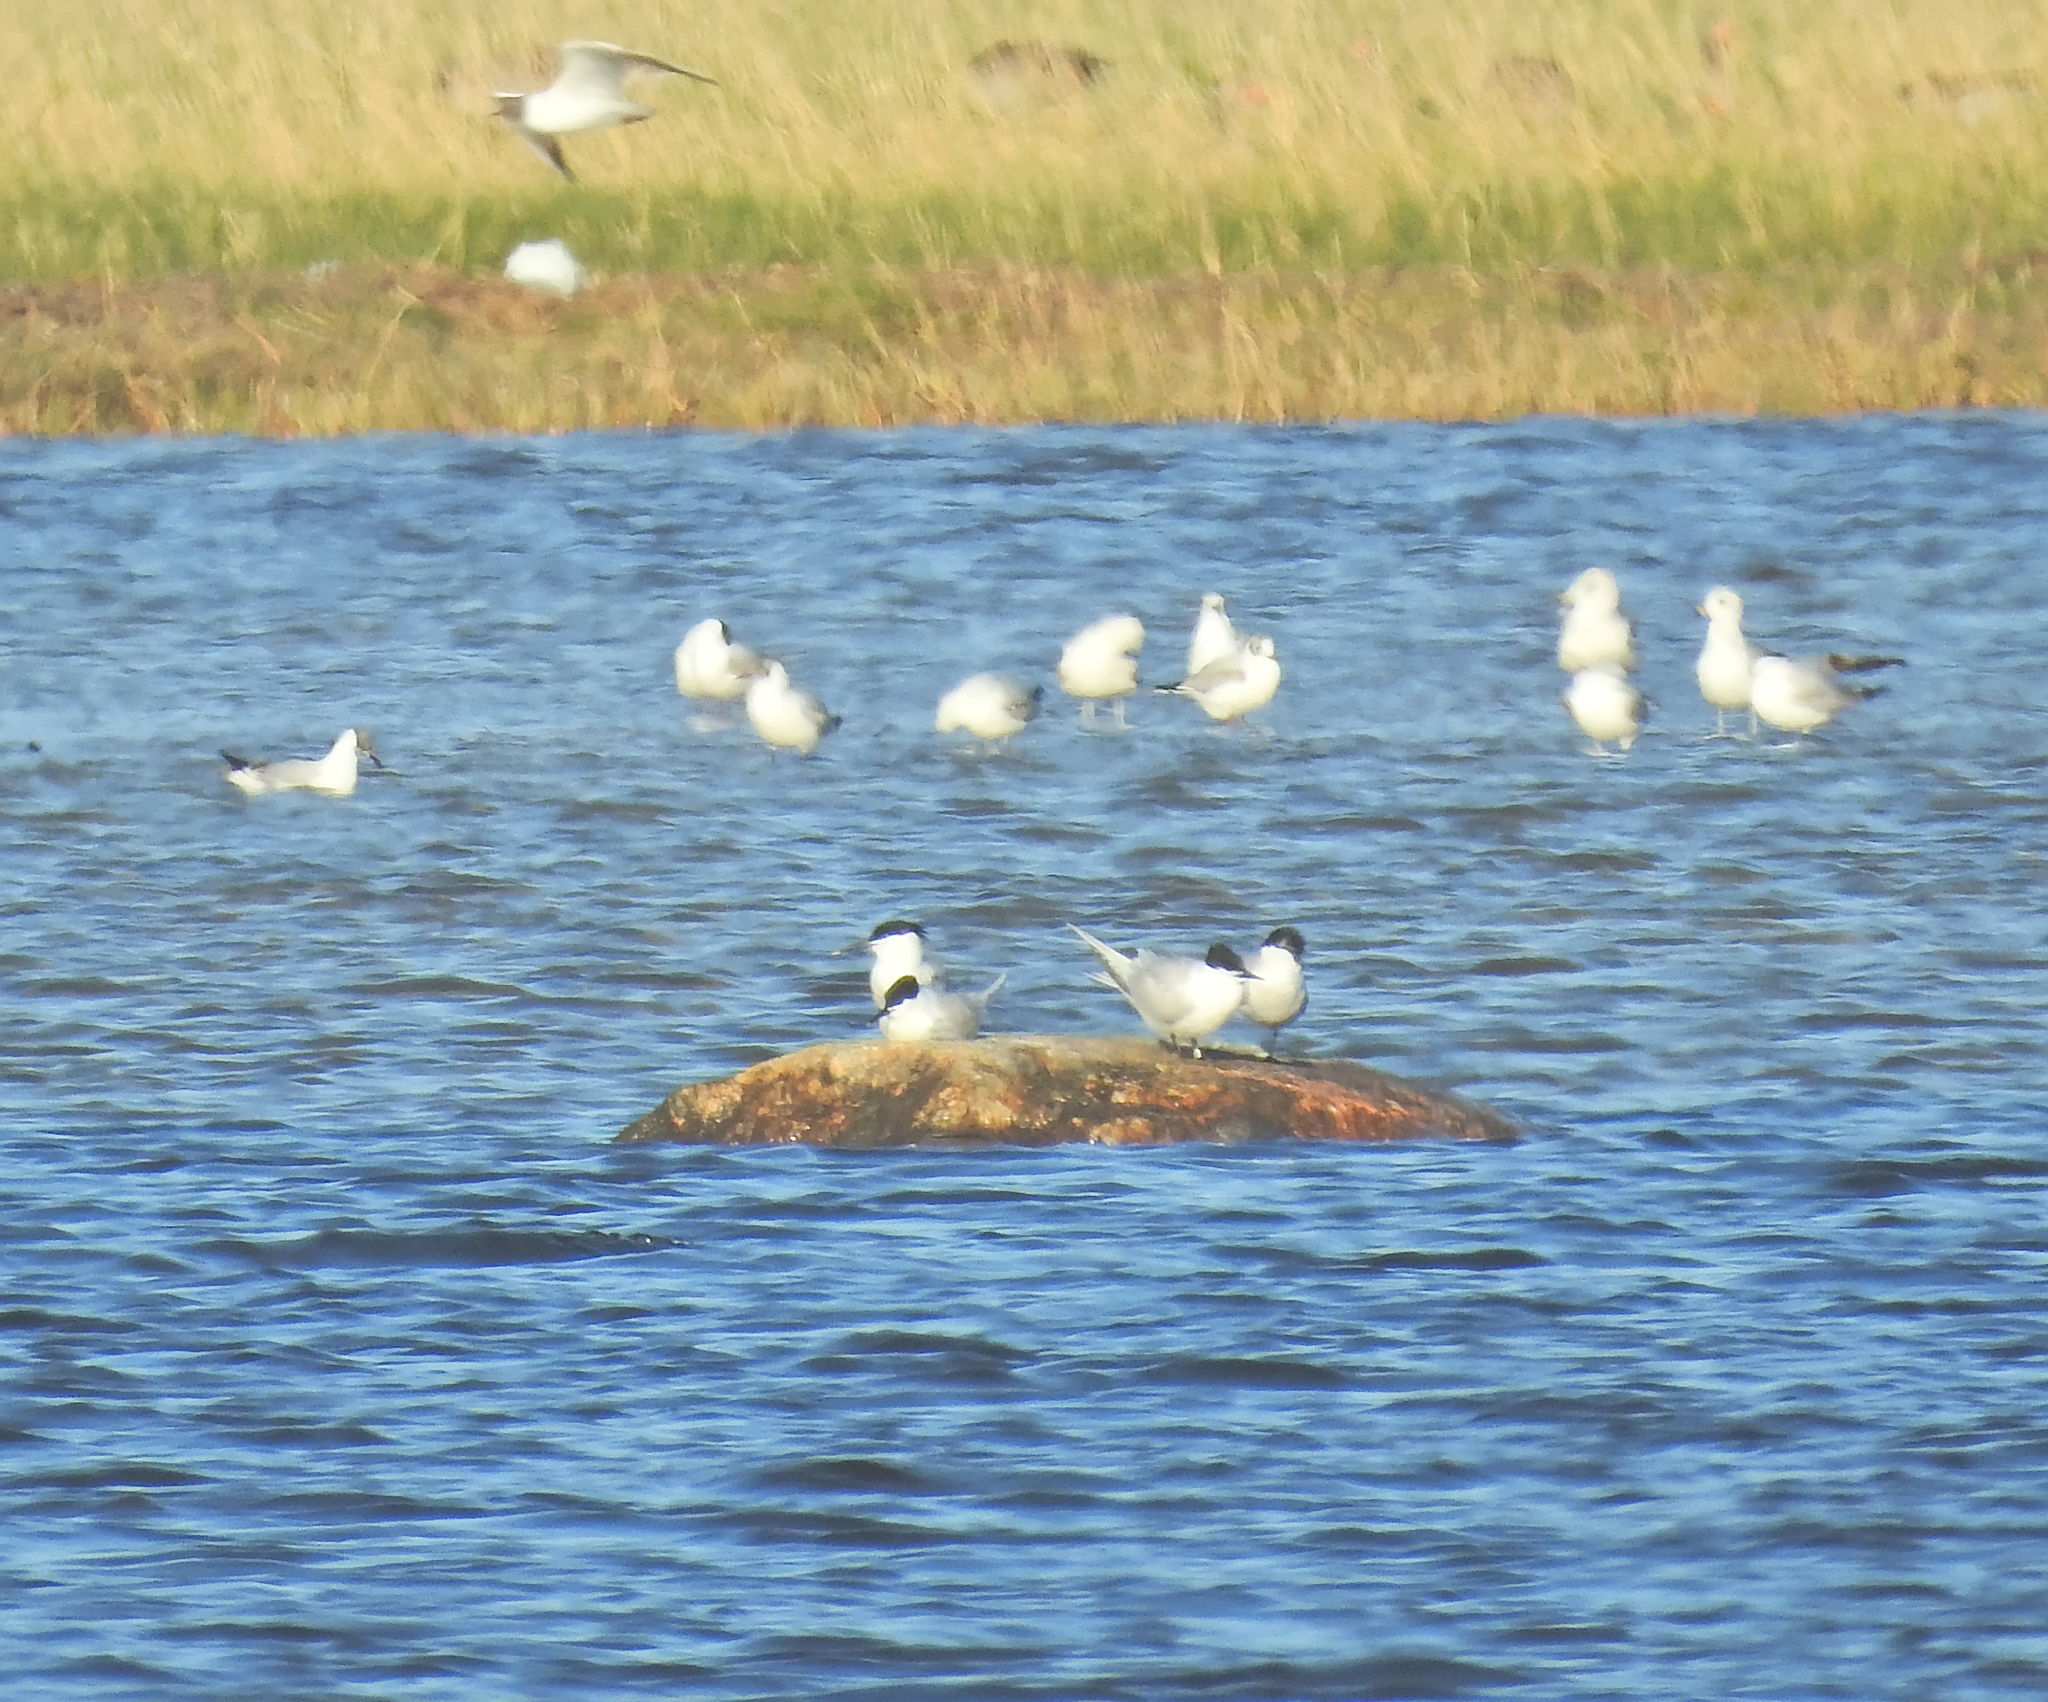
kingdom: Animalia
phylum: Chordata
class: Aves
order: Charadriiformes
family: Laridae
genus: Thalasseus
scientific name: Thalasseus sandvicensis
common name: Sandwich tern
